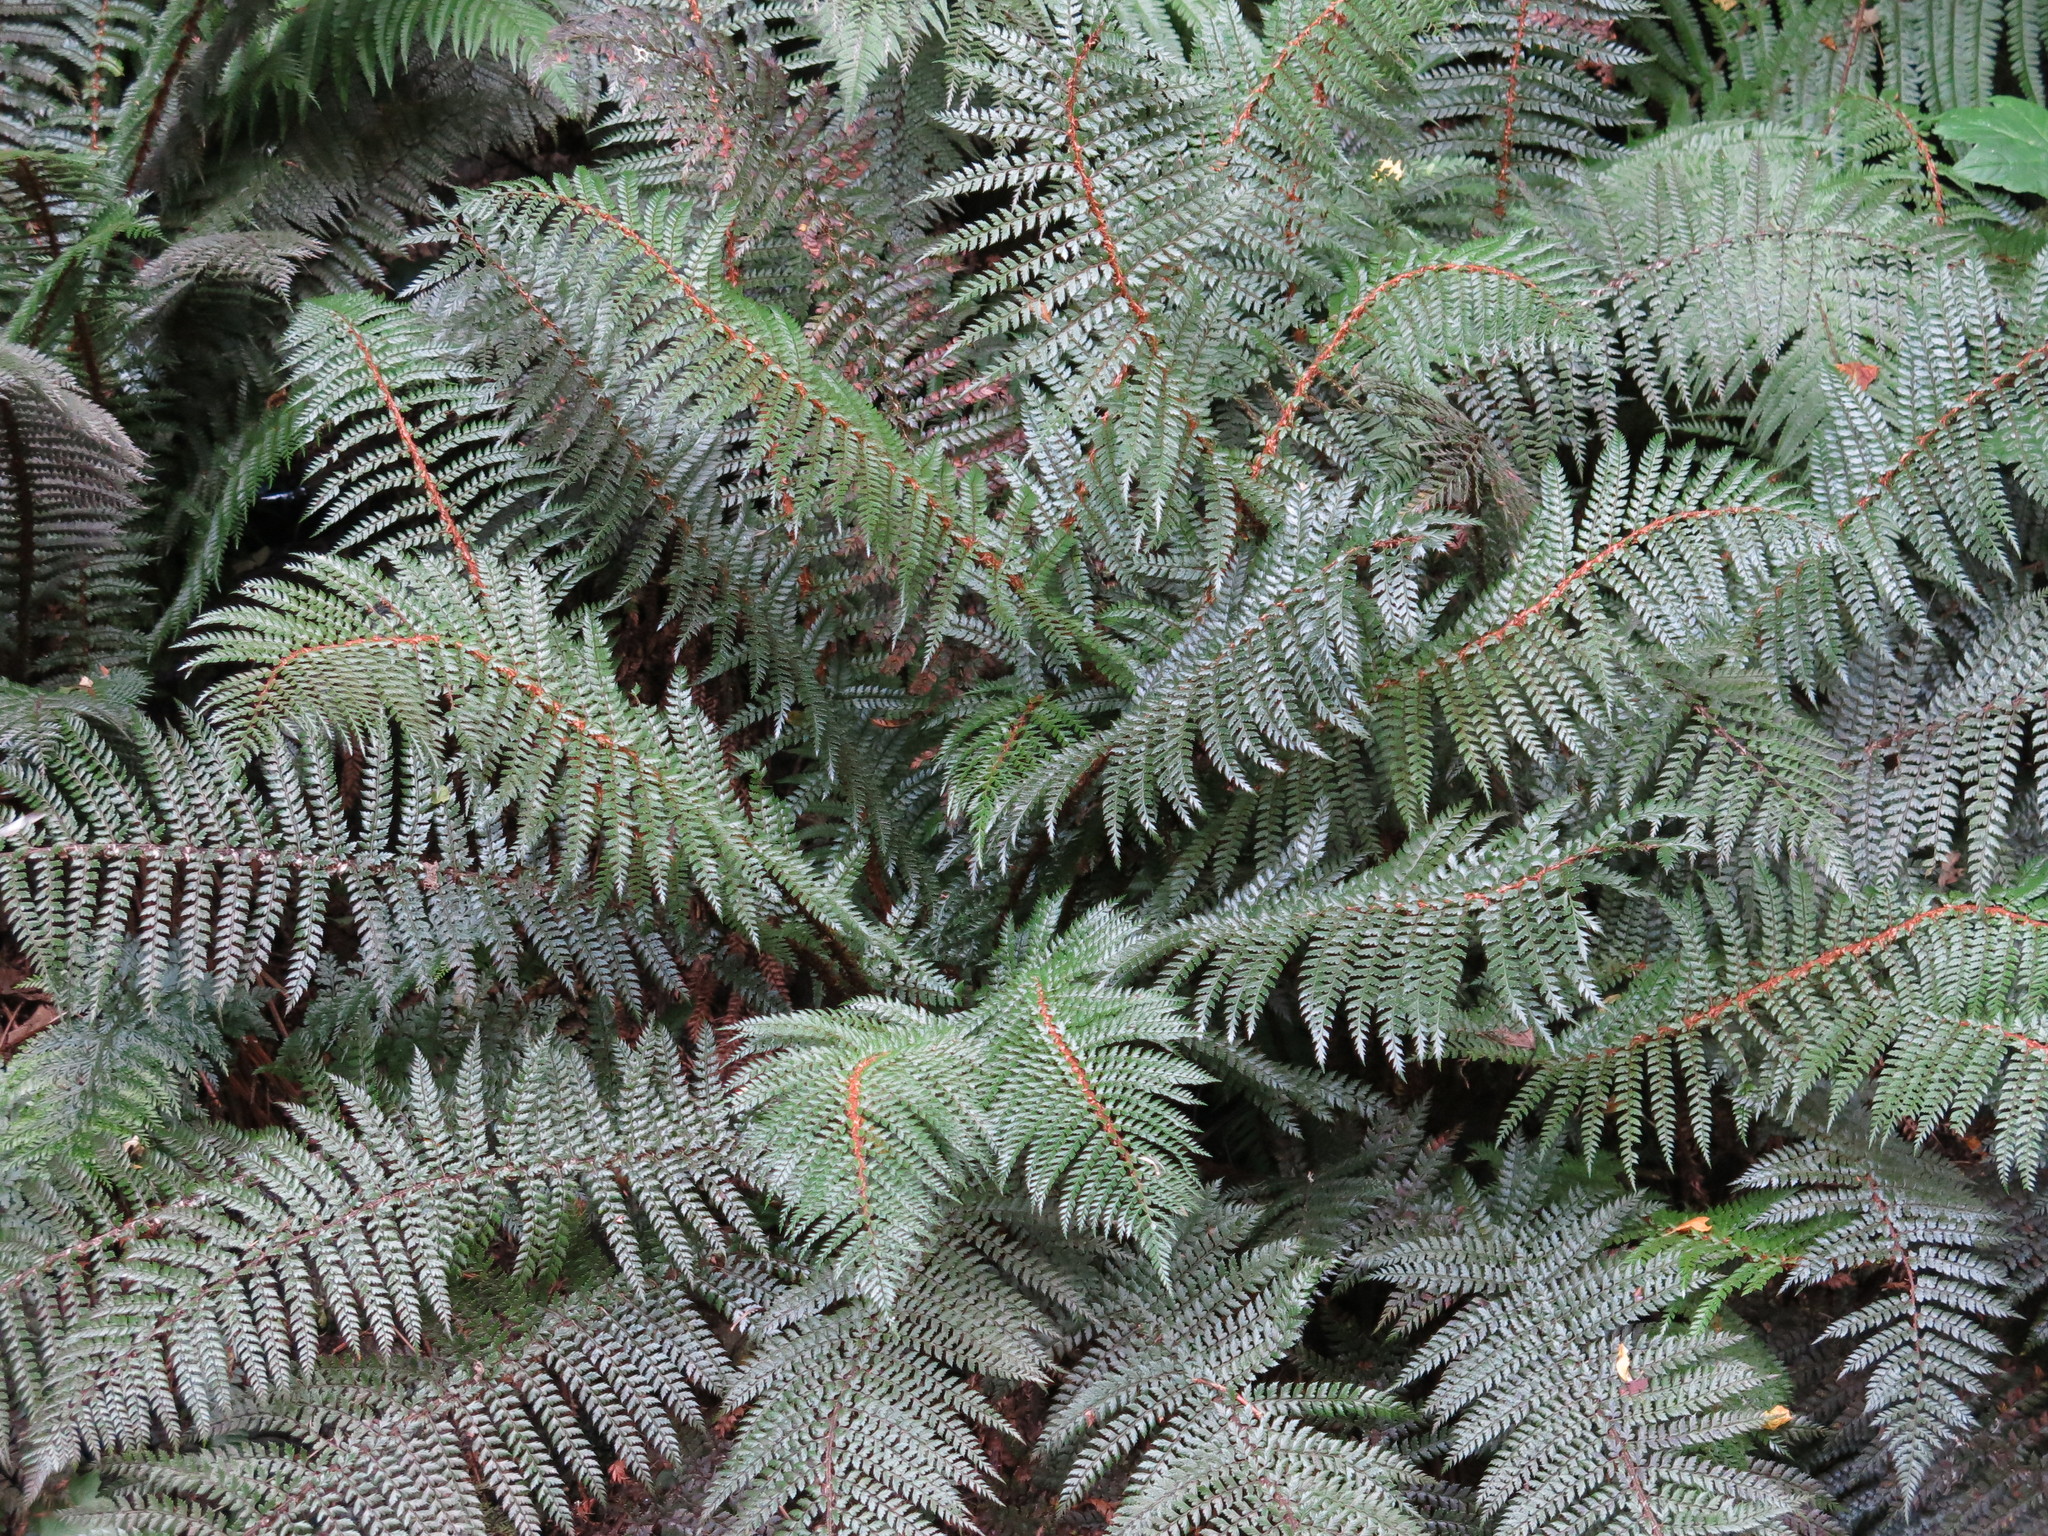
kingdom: Plantae
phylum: Tracheophyta
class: Polypodiopsida
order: Polypodiales
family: Dryopteridaceae
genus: Polystichum
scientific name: Polystichum vestitum
